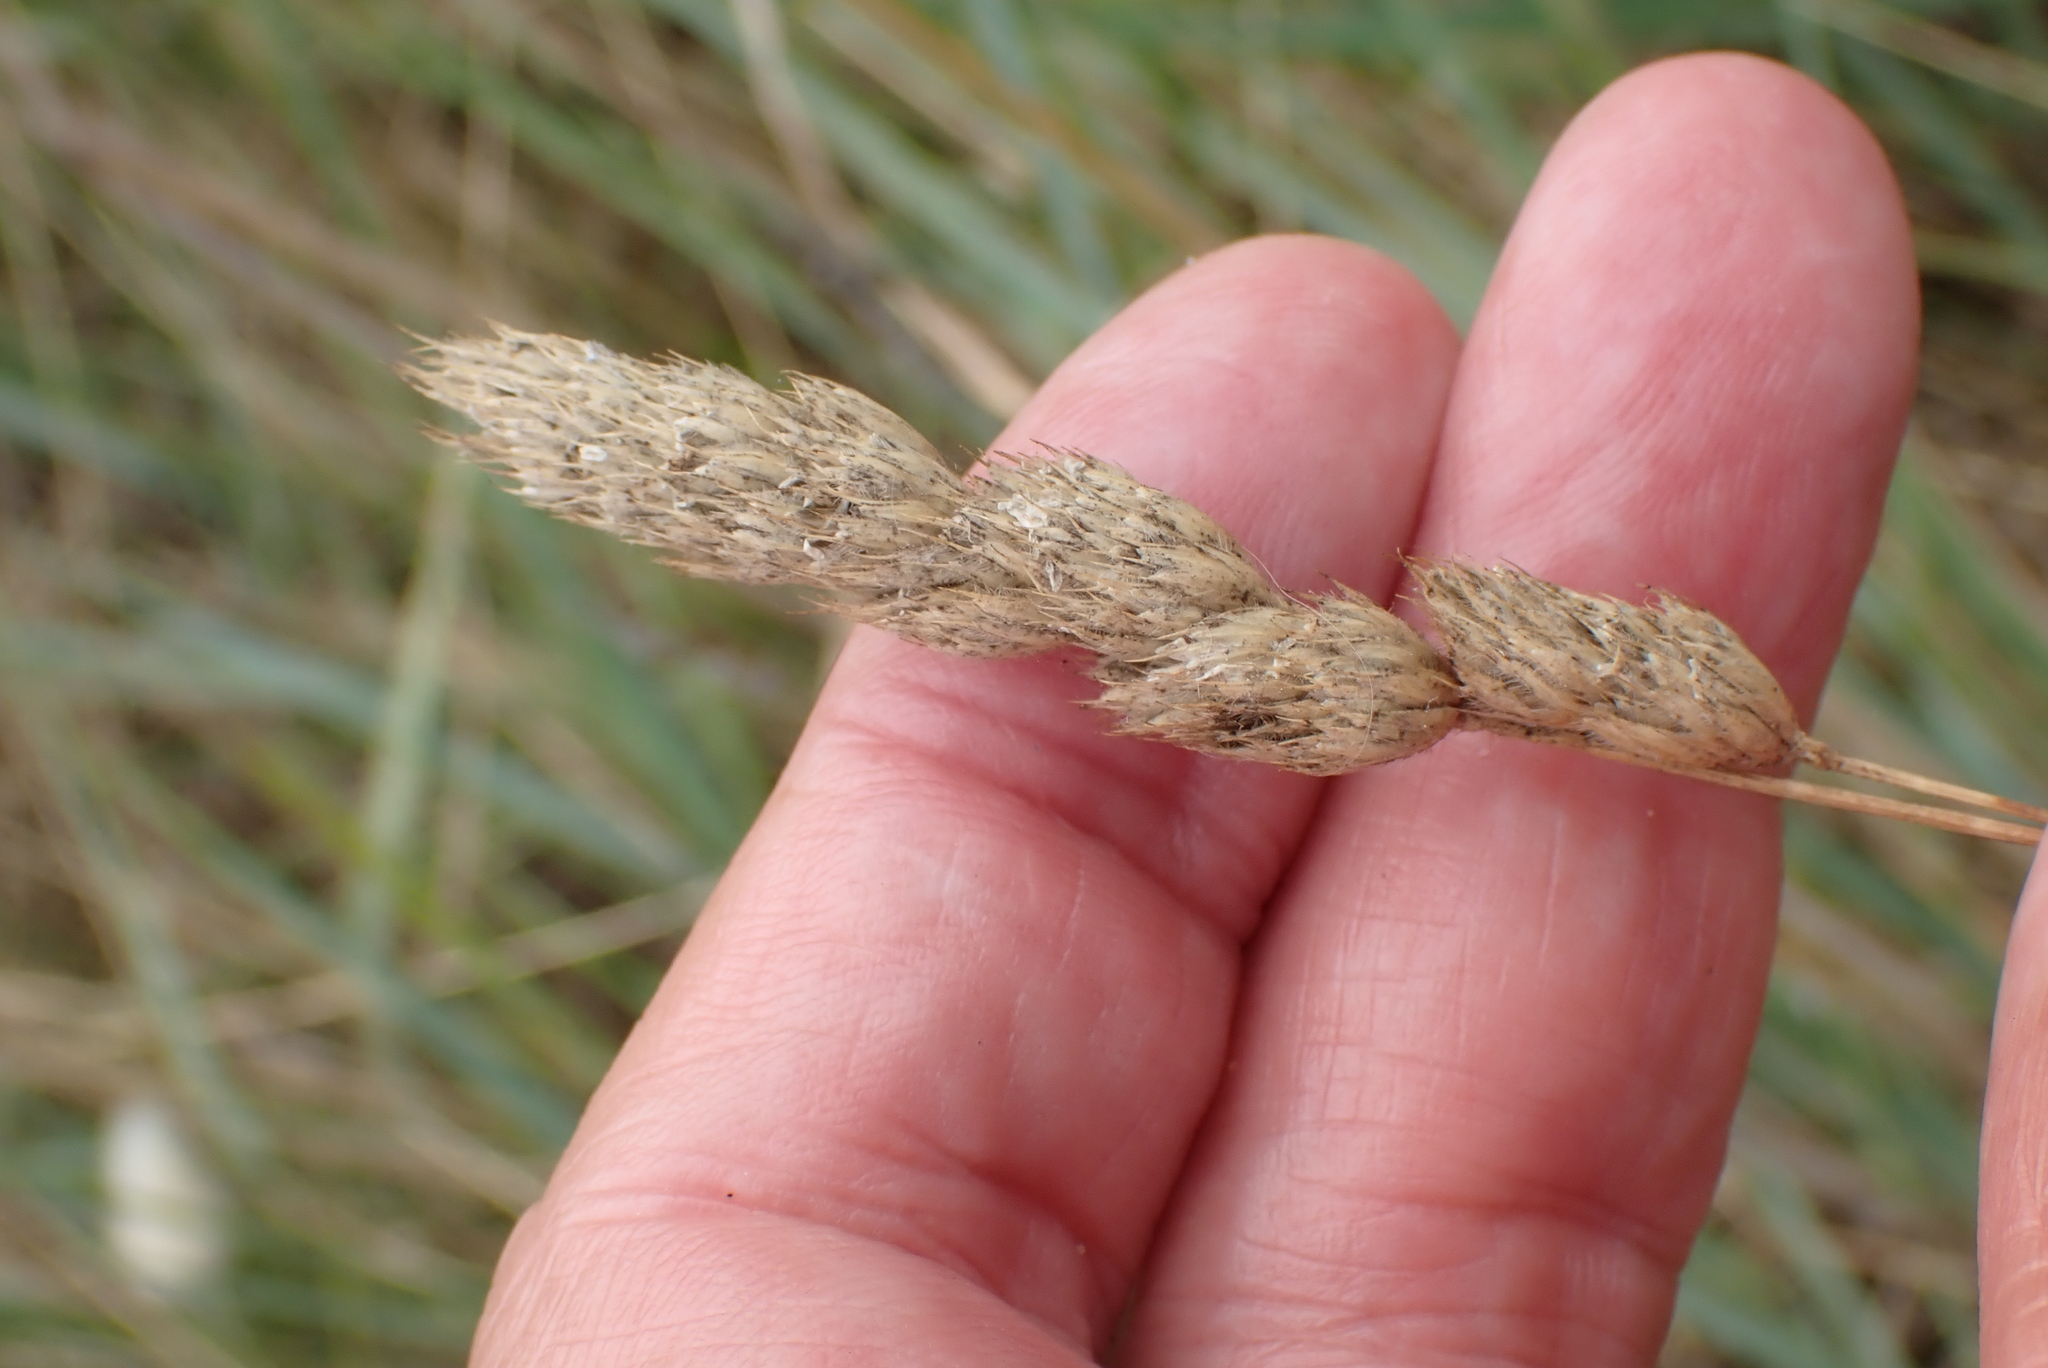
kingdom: Plantae
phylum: Tracheophyta
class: Liliopsida
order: Poales
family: Poaceae
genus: Dactylis
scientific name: Dactylis glomerata
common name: Orchardgrass
